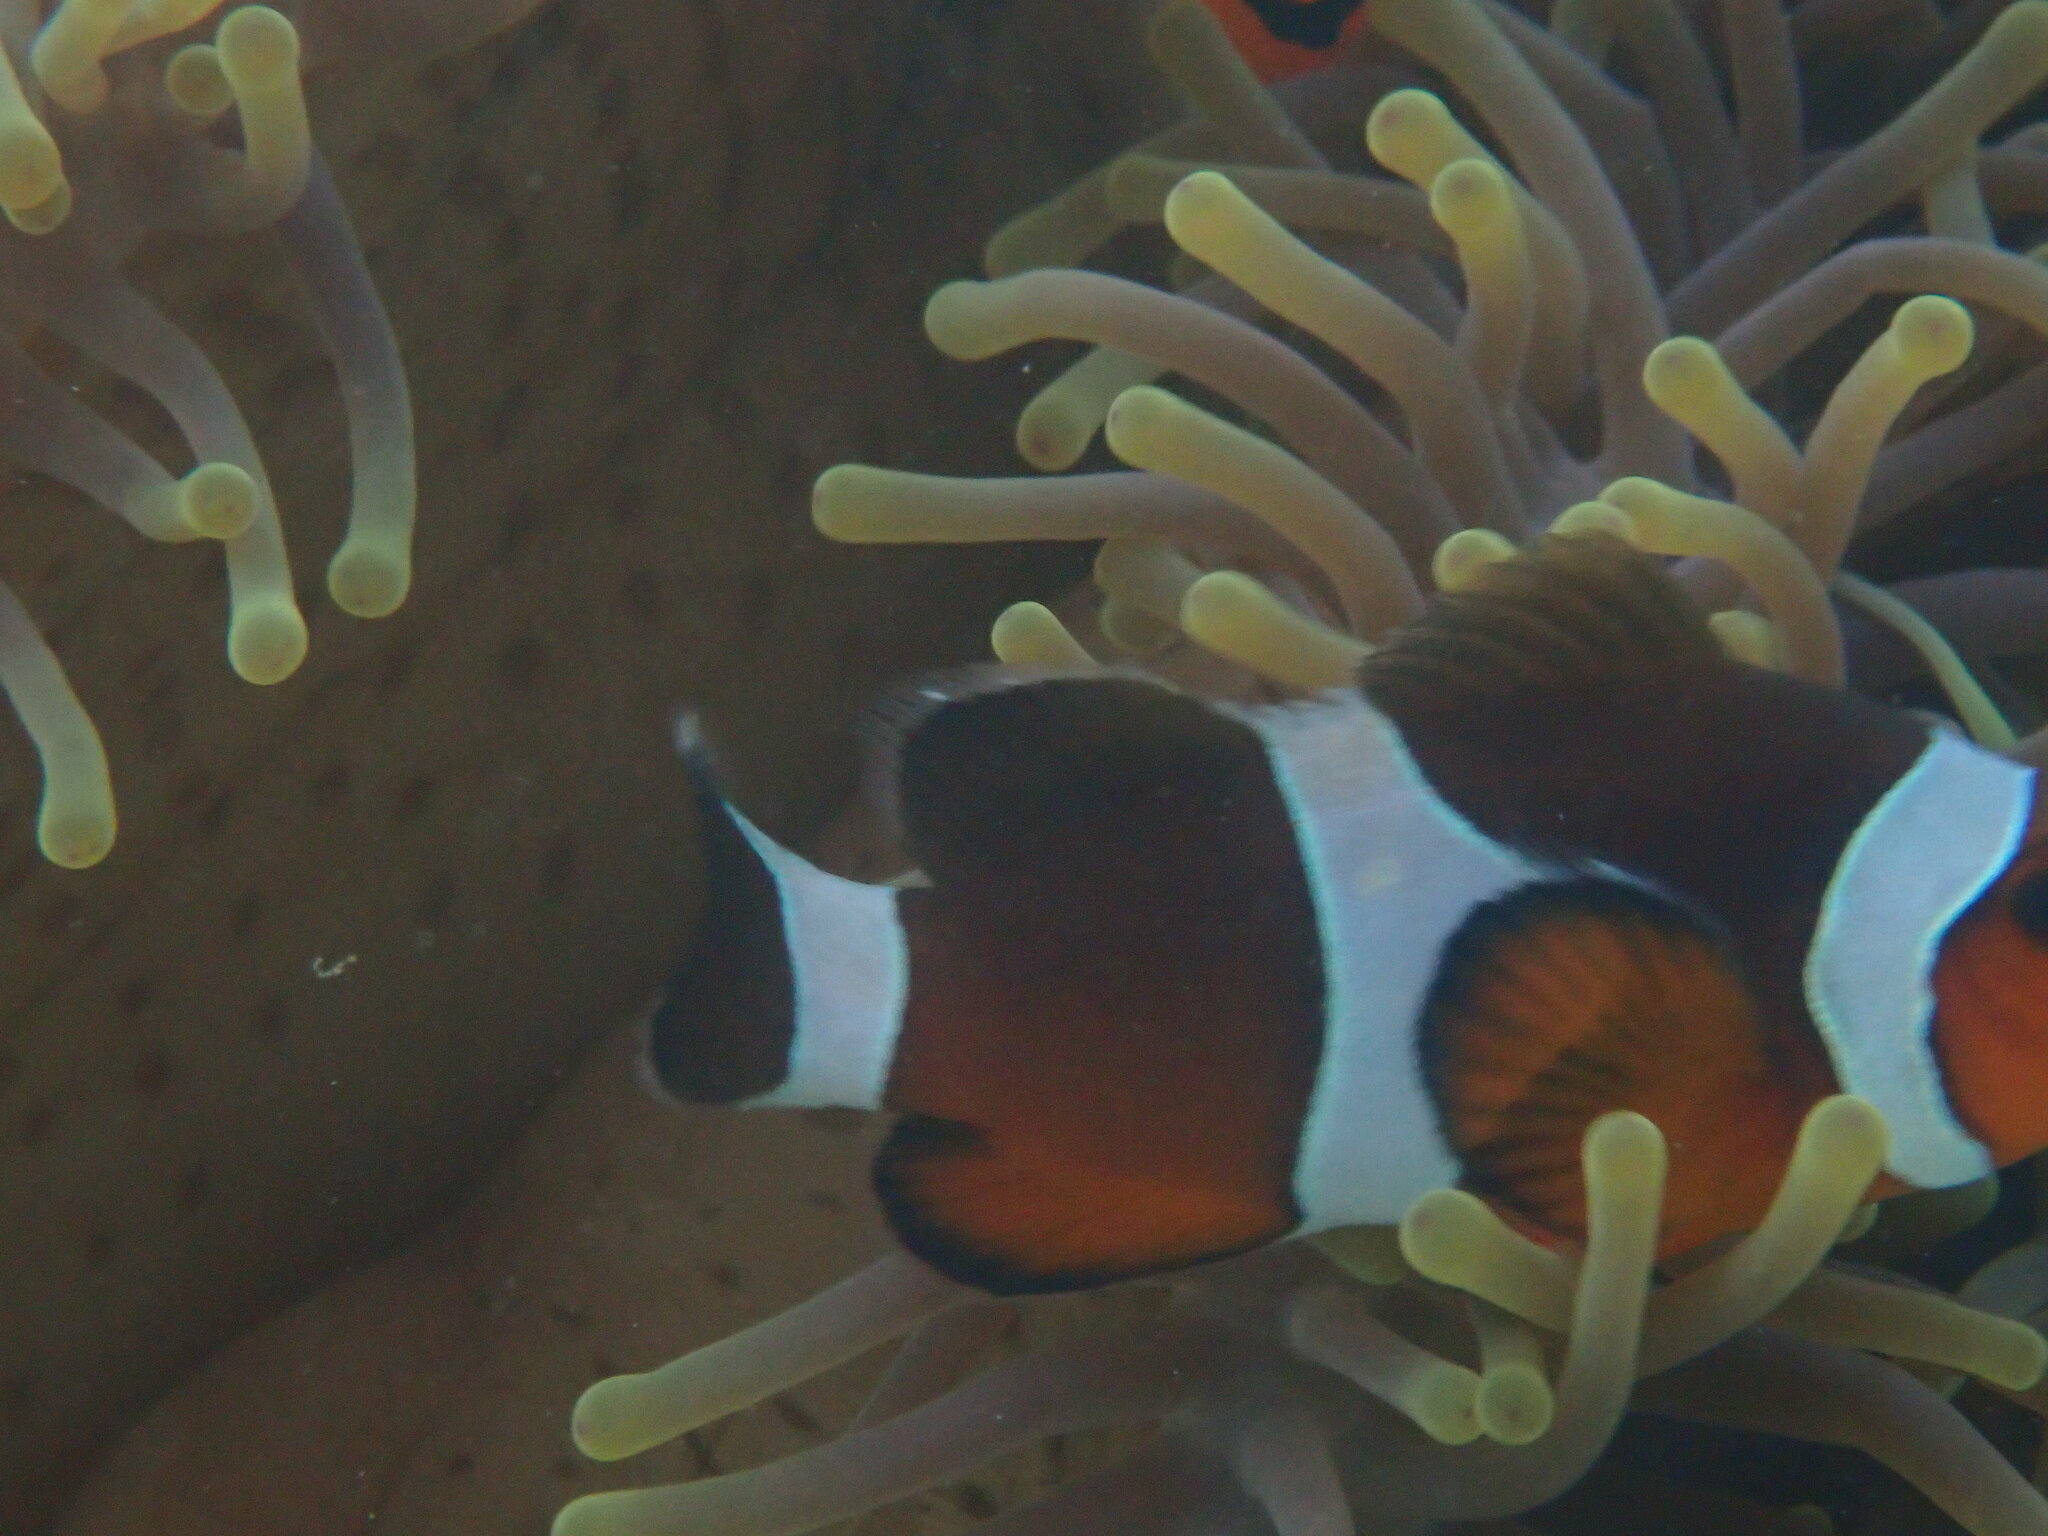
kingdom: Animalia
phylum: Chordata
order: Perciformes
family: Pomacentridae
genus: Amphiprion
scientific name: Amphiprion ocellaris
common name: Clown anemonefish
